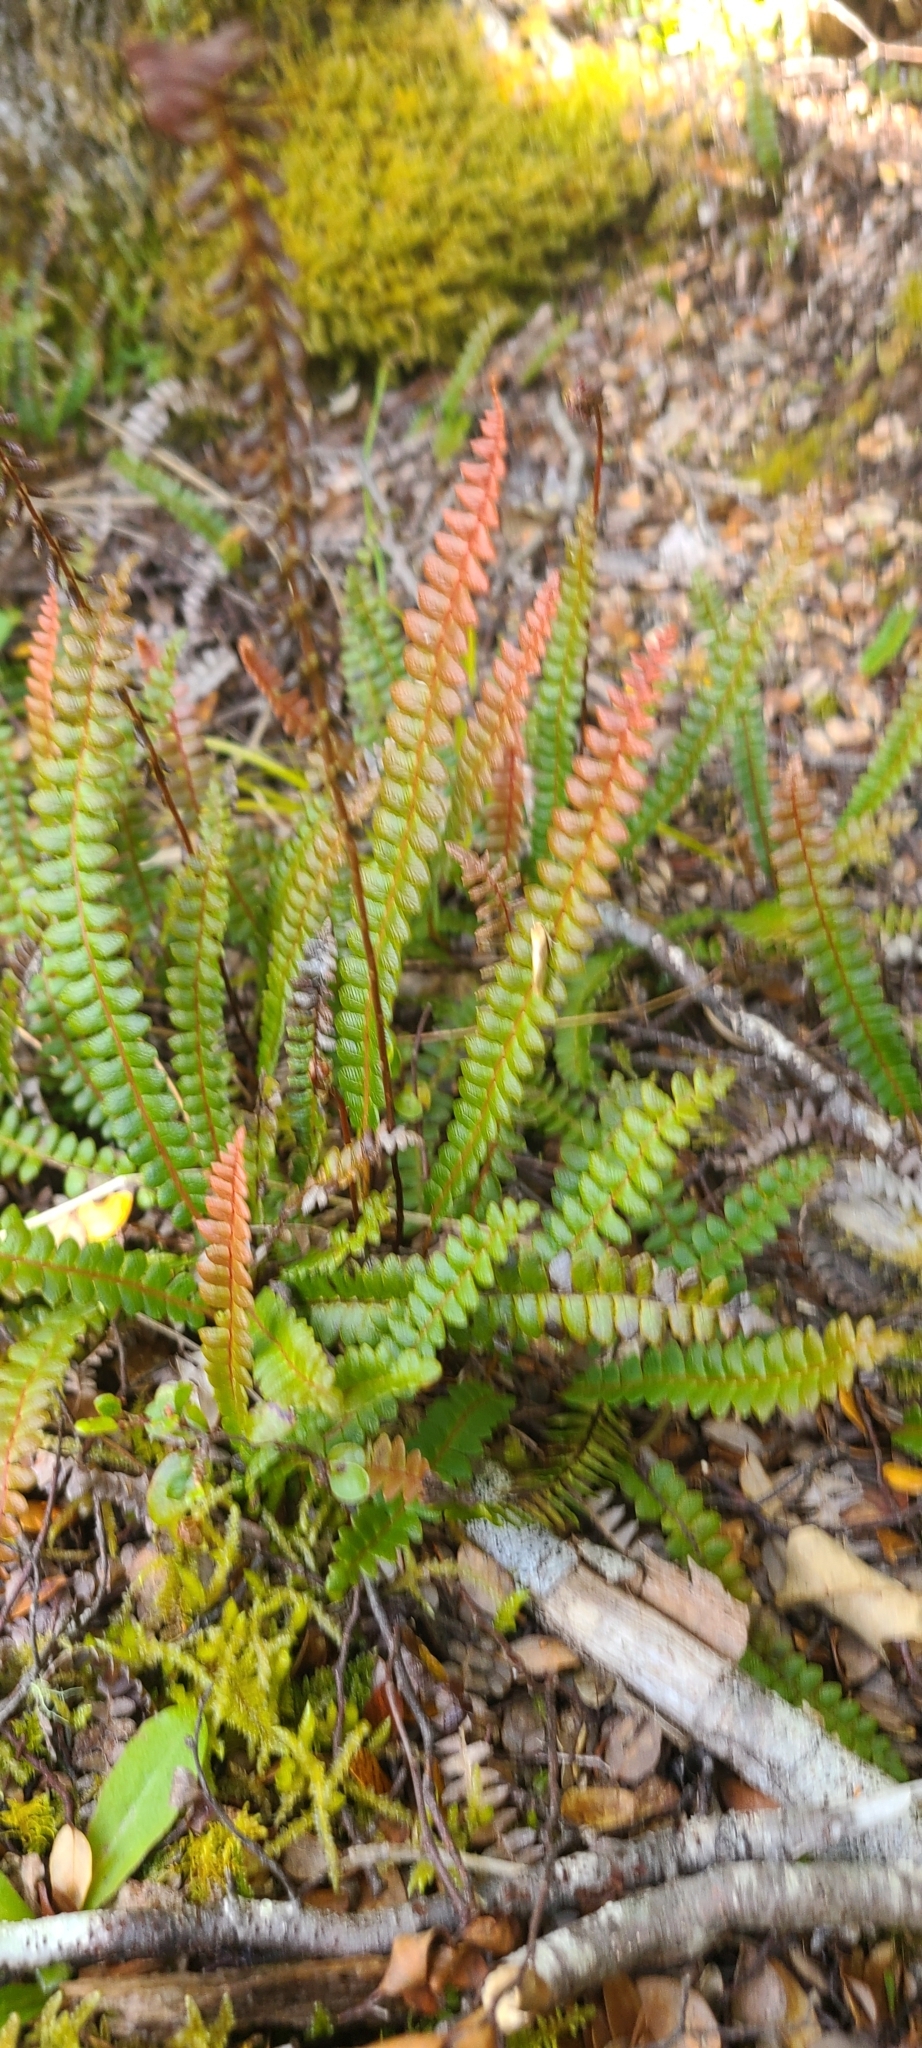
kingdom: Plantae
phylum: Tracheophyta
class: Polypodiopsida
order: Polypodiales
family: Blechnaceae
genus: Austroblechnum
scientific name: Austroblechnum penna-marina
